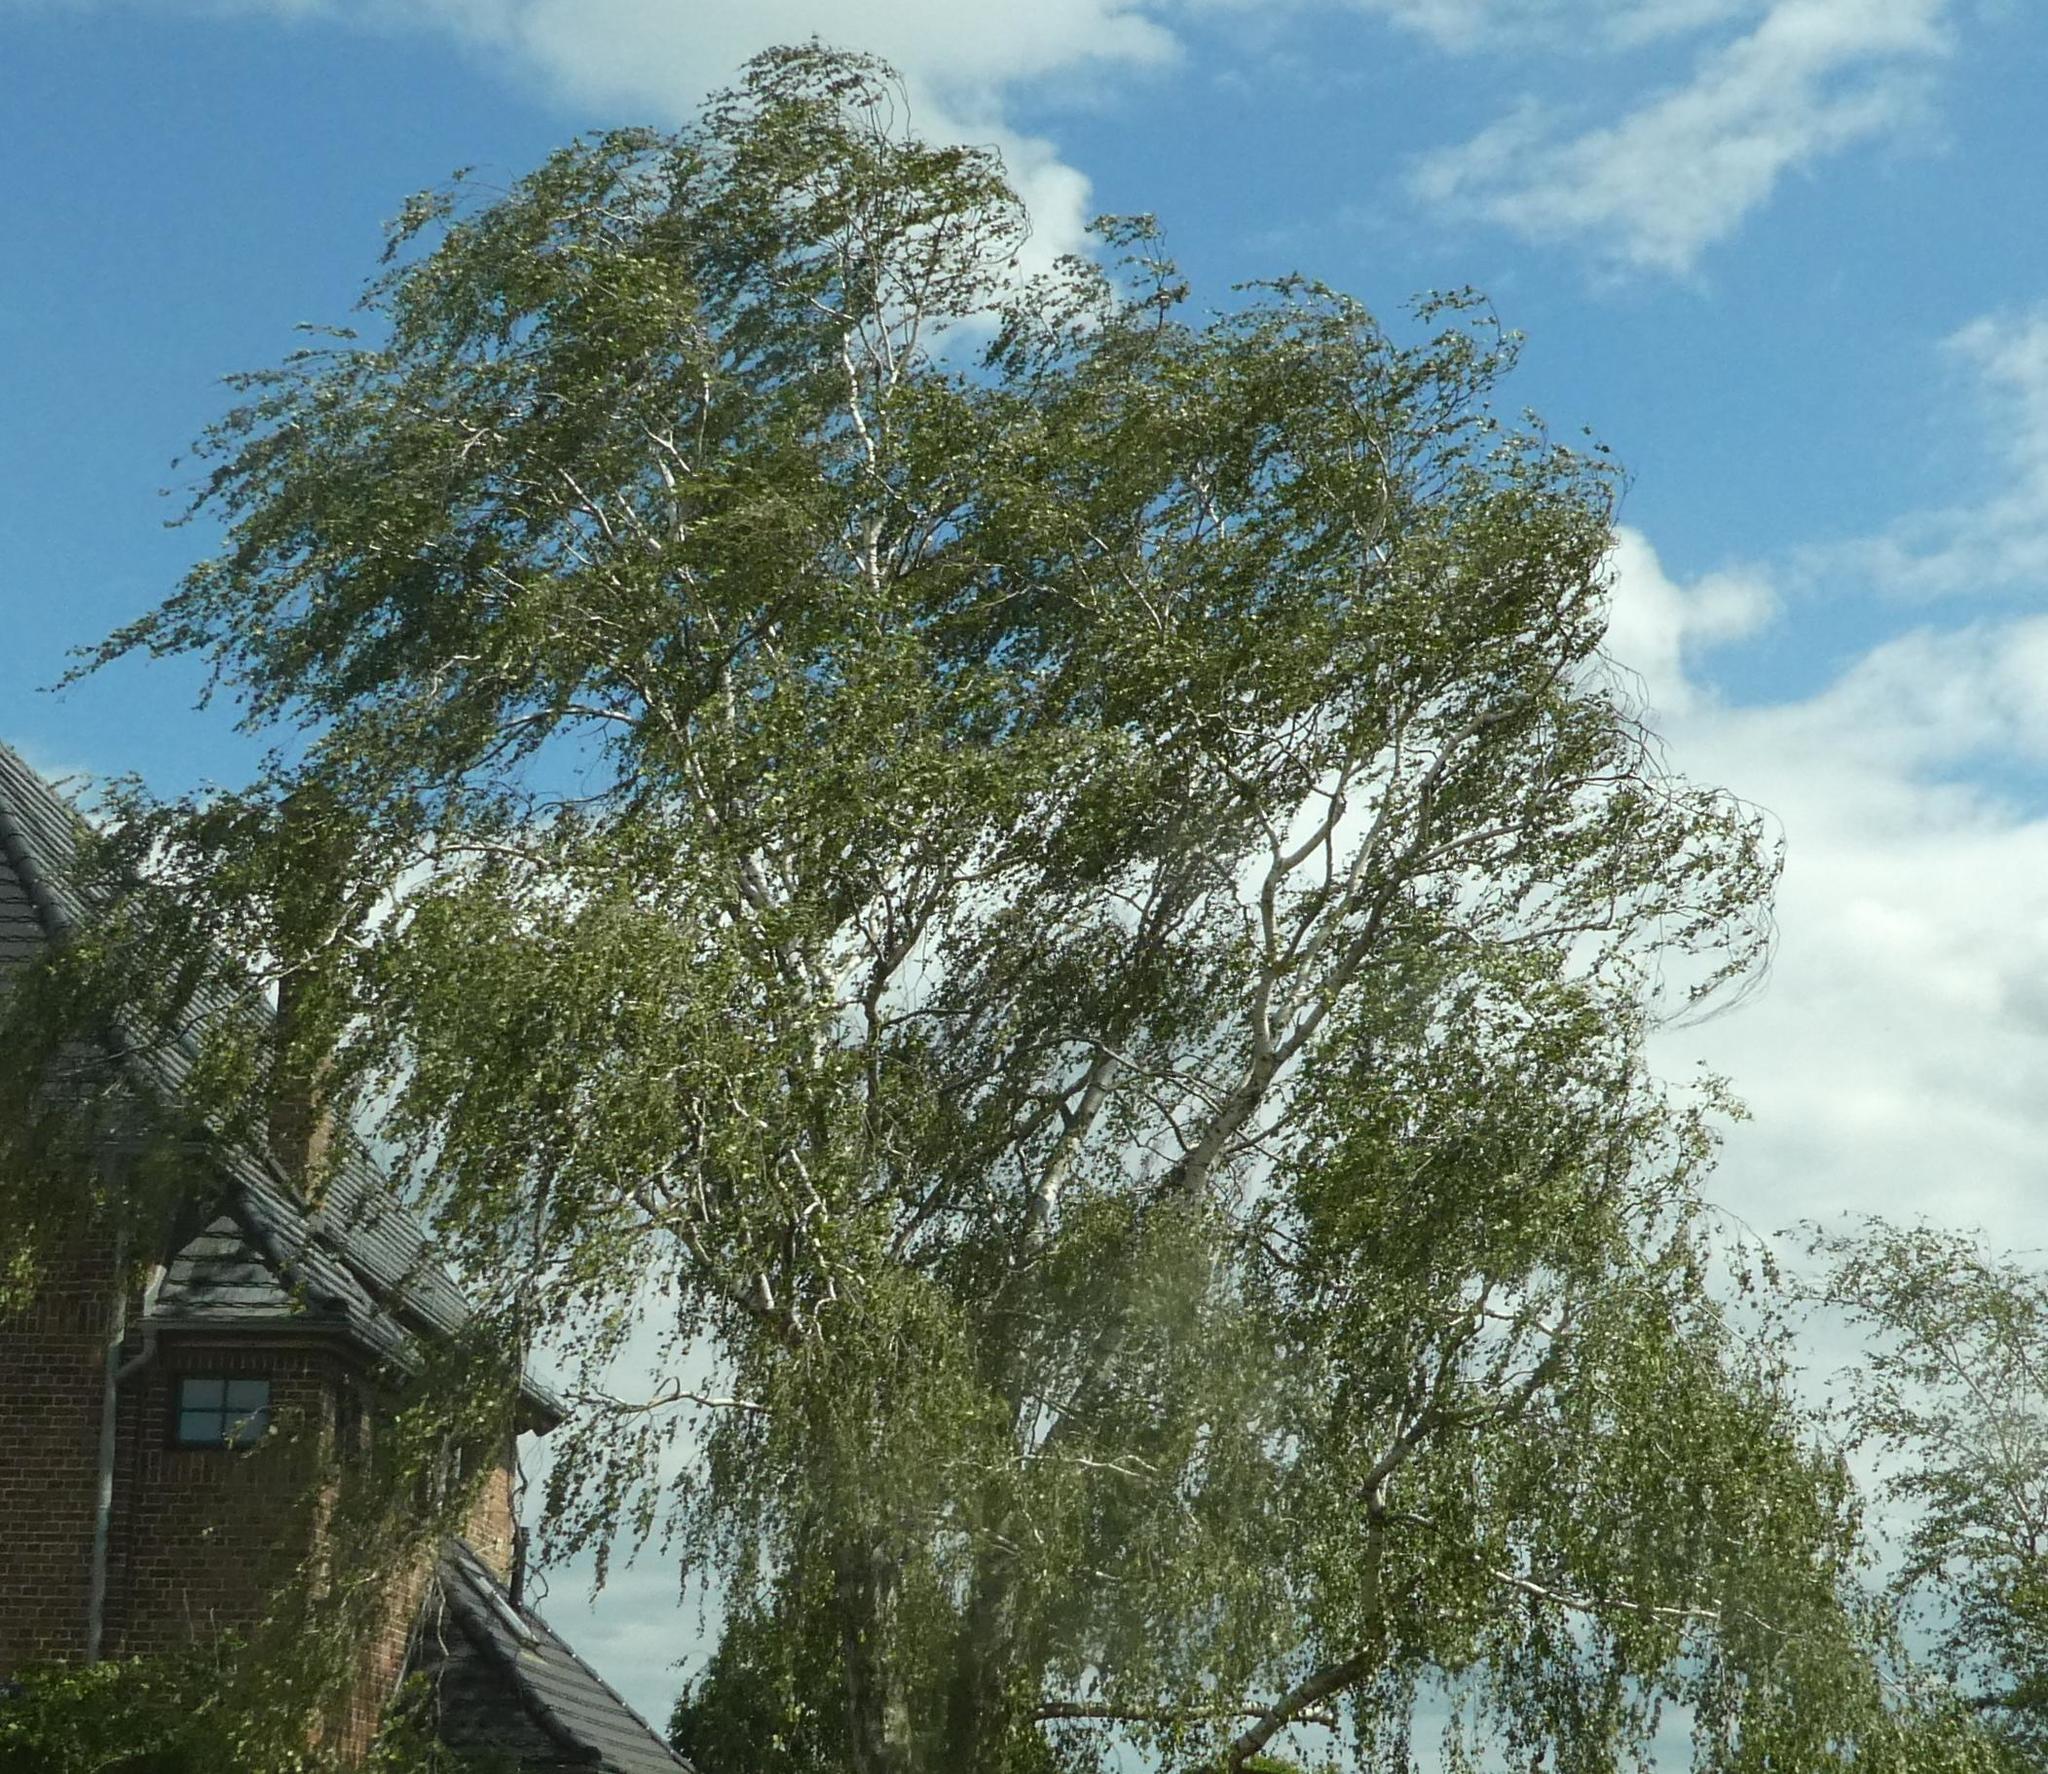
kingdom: Plantae
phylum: Tracheophyta
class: Magnoliopsida
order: Fagales
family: Betulaceae
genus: Betula
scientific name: Betula pendula
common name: Silver birch
